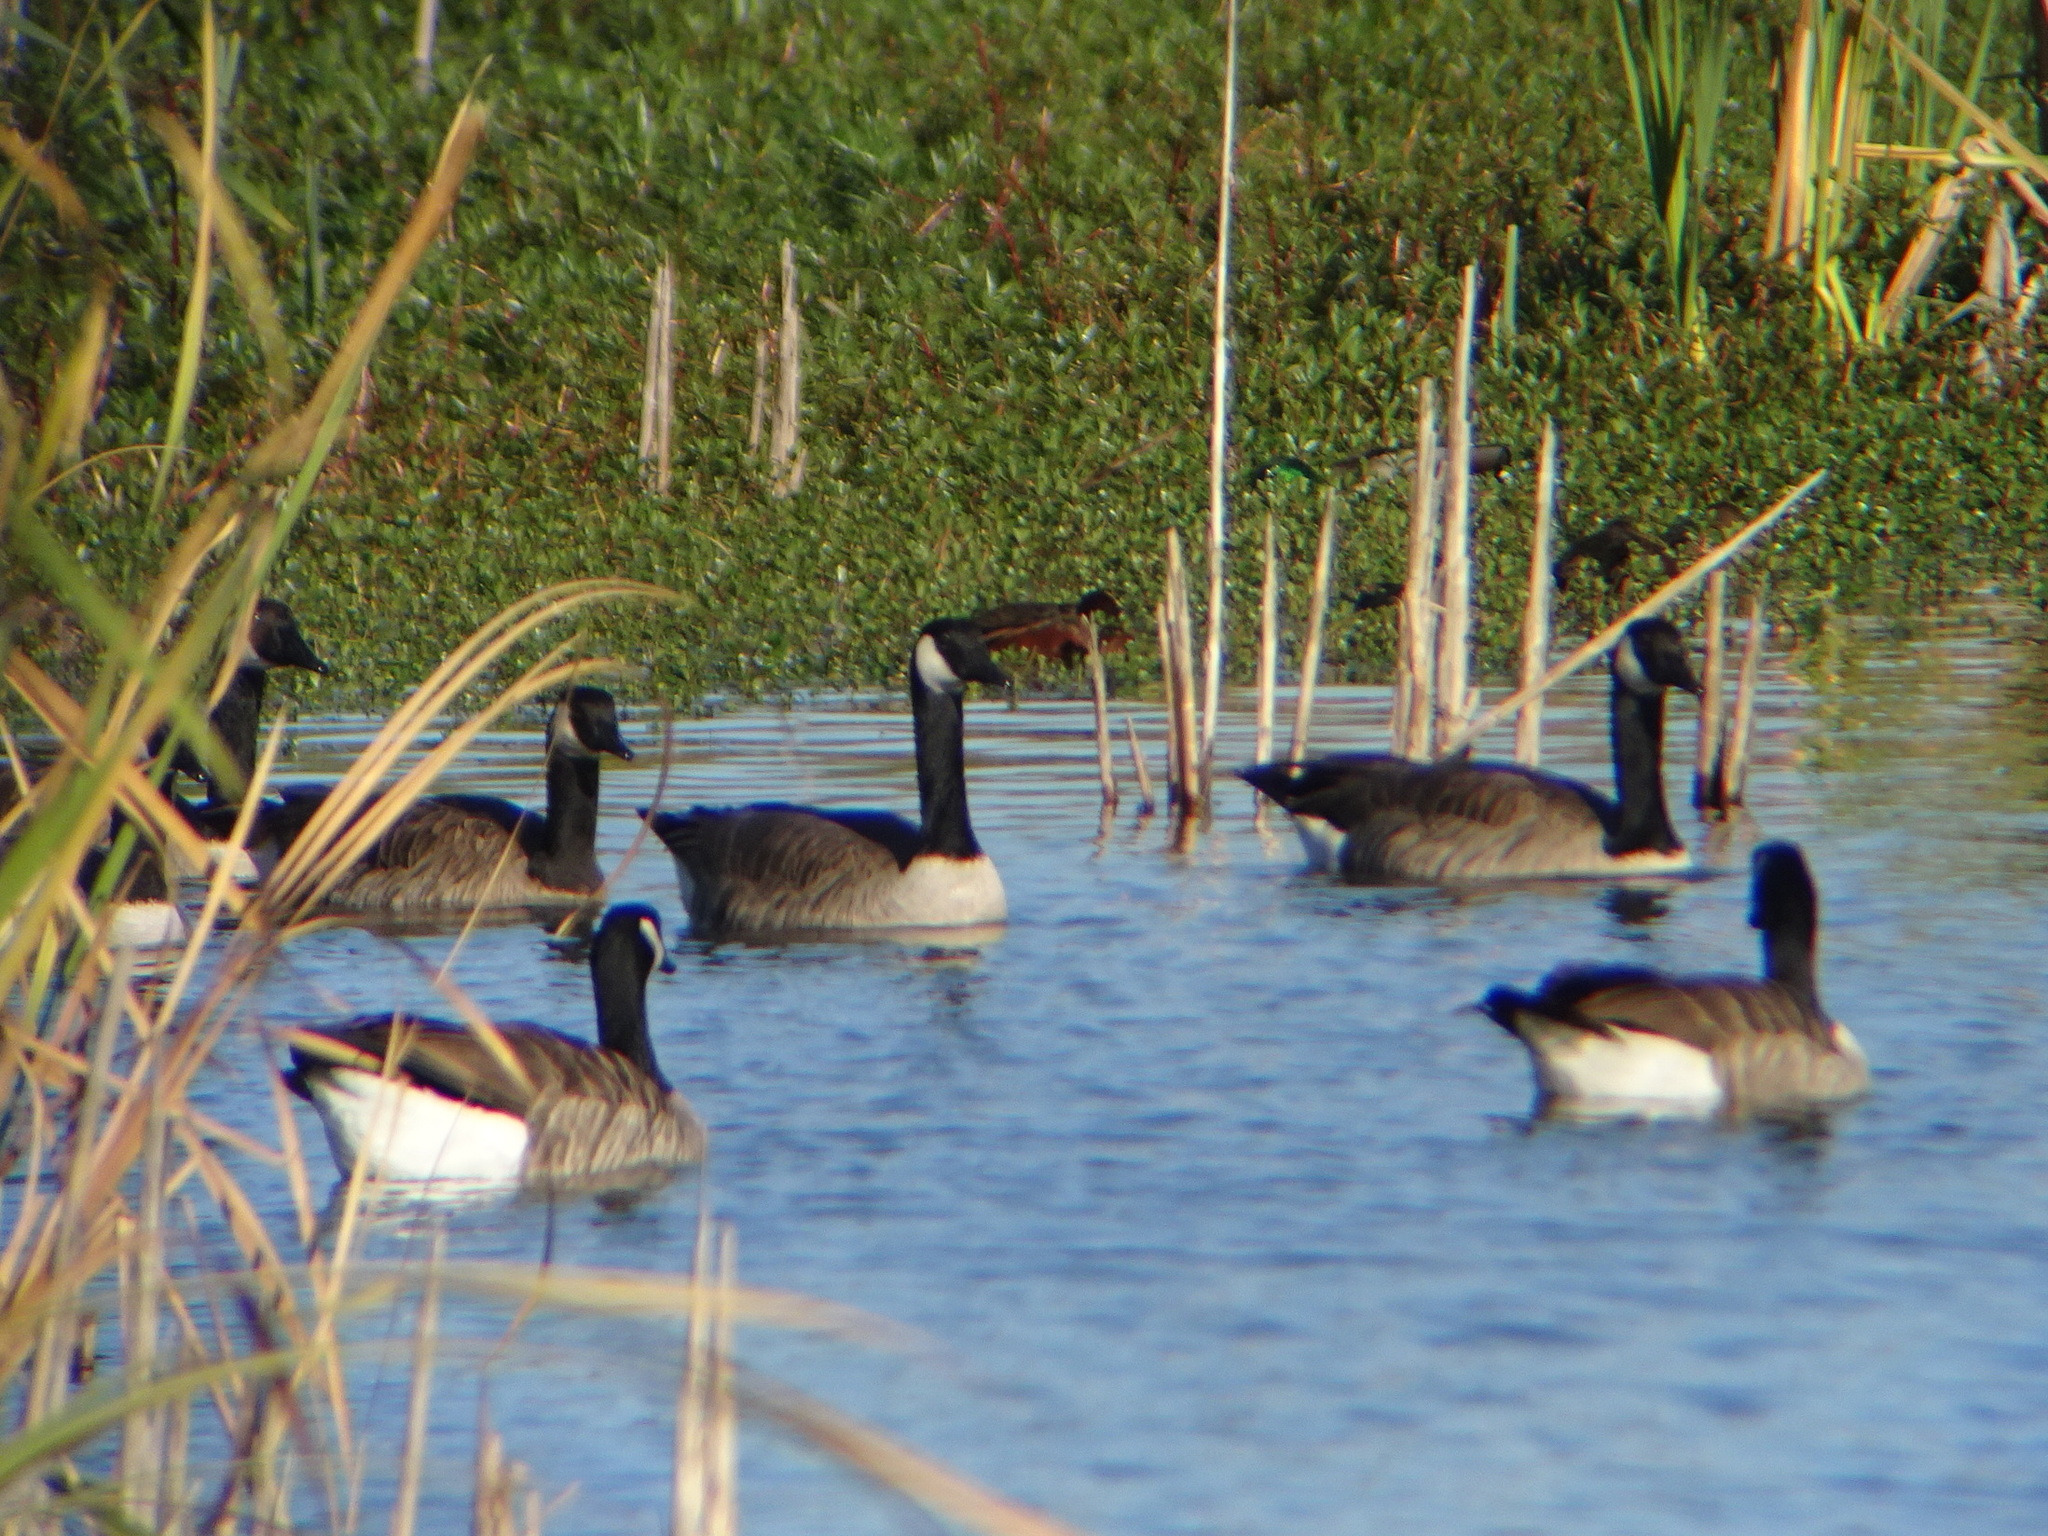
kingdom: Animalia
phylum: Chordata
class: Aves
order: Anseriformes
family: Anatidae
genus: Branta
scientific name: Branta canadensis
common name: Canada goose
